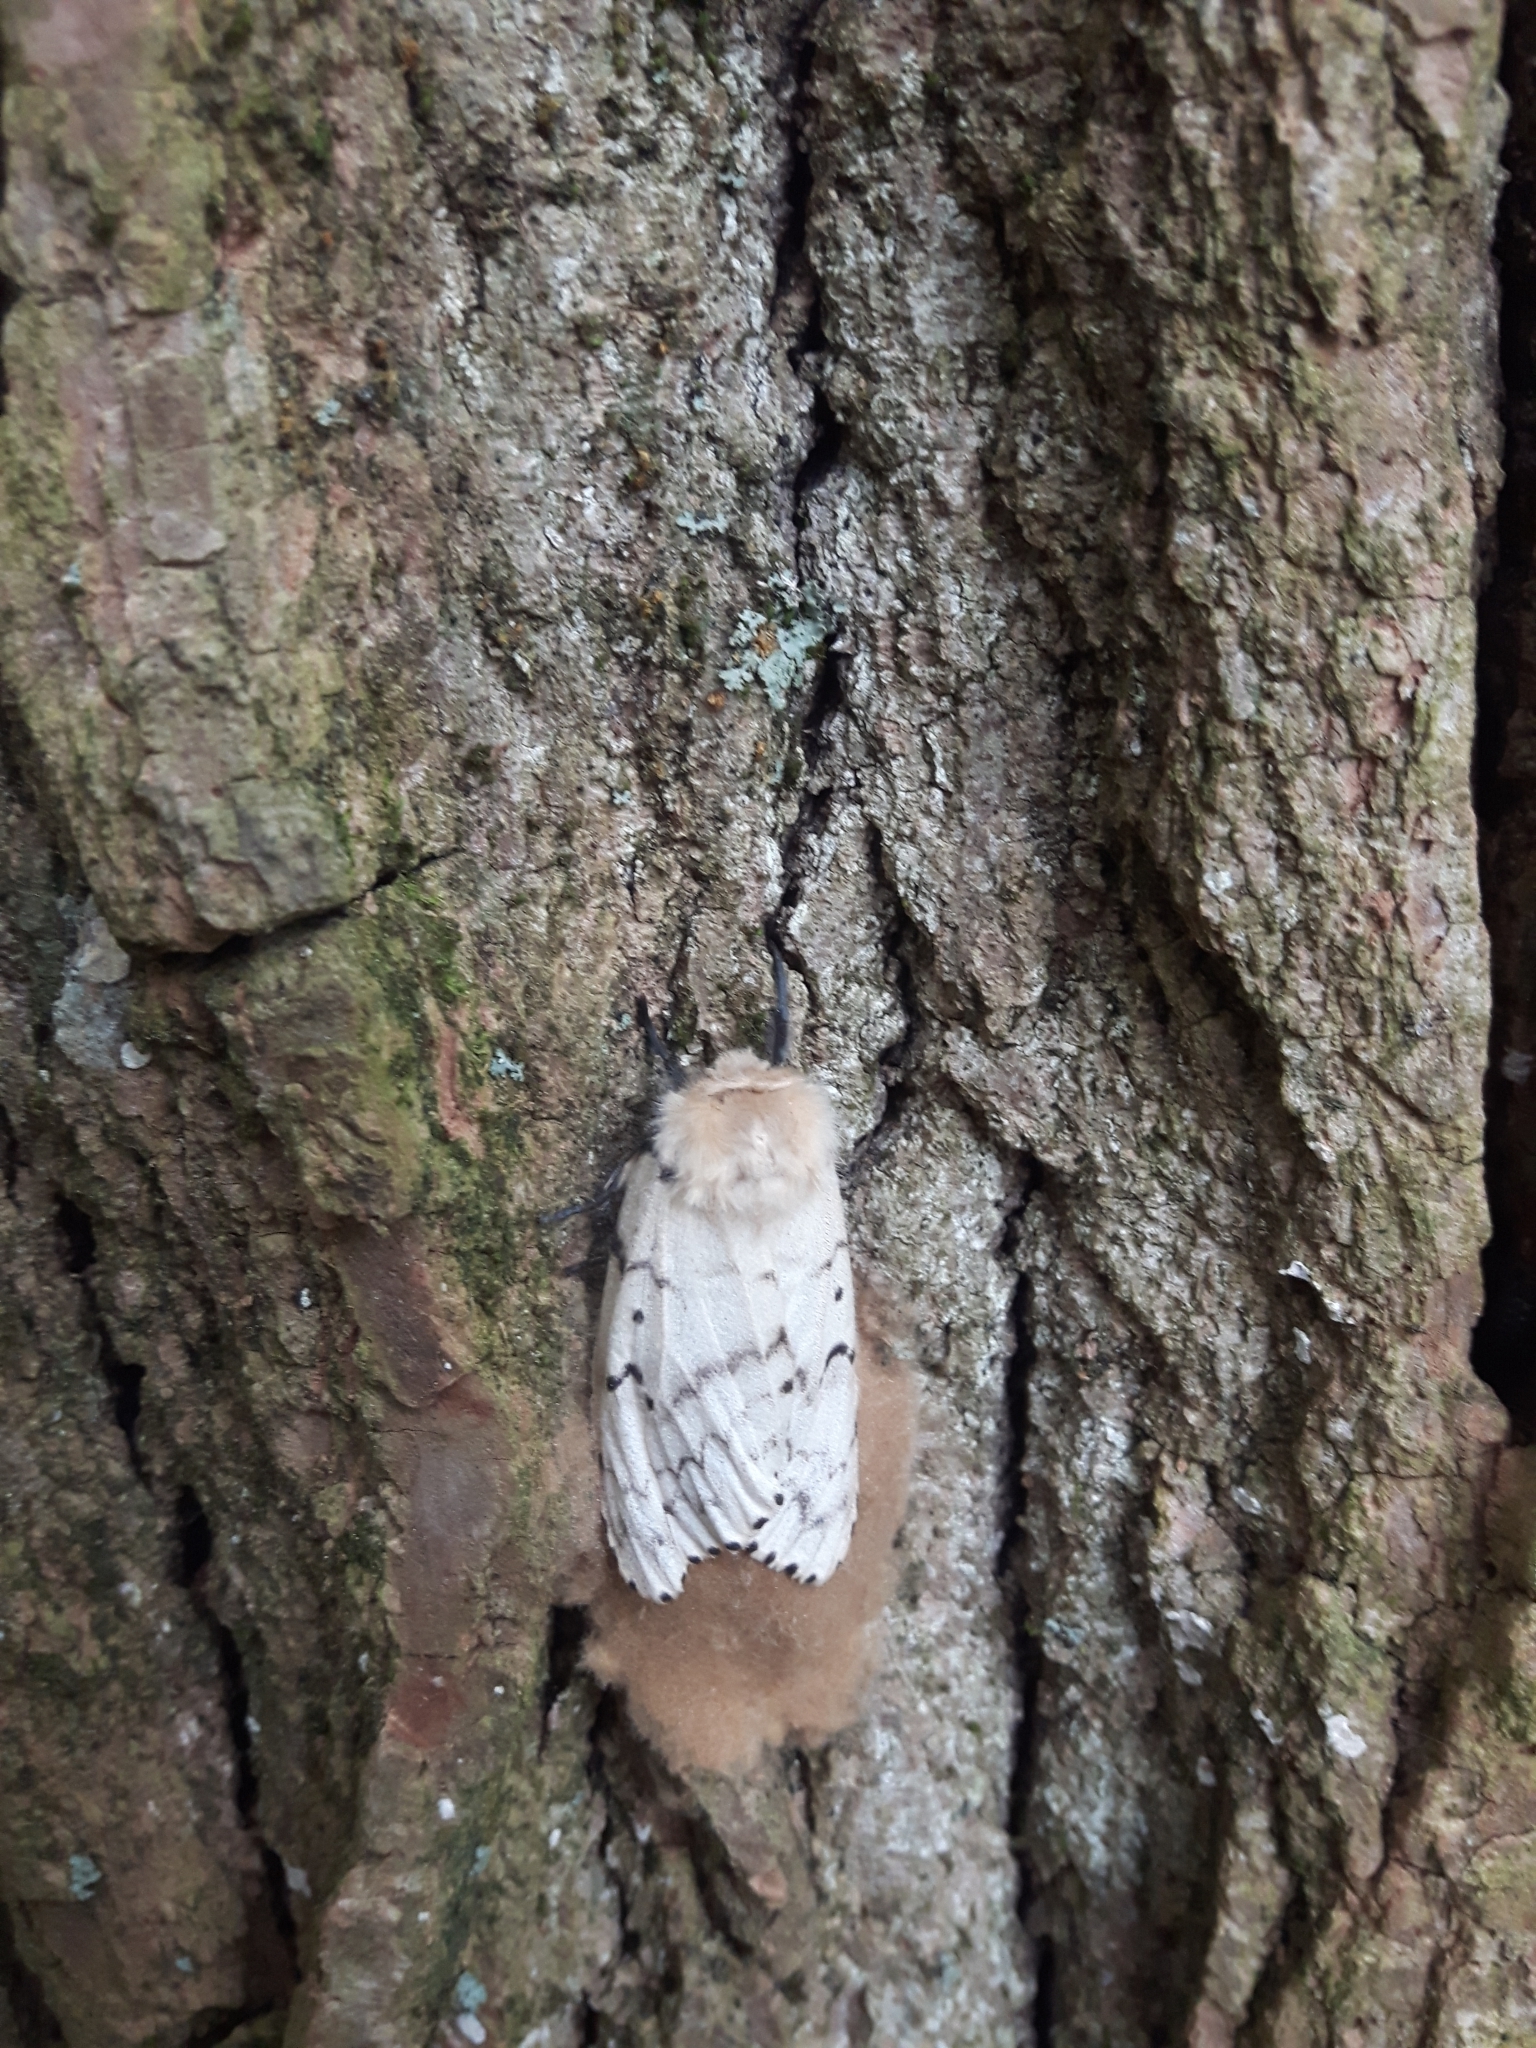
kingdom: Animalia
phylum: Arthropoda
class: Insecta
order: Lepidoptera
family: Erebidae
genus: Lymantria
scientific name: Lymantria dispar
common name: Gypsy moth
